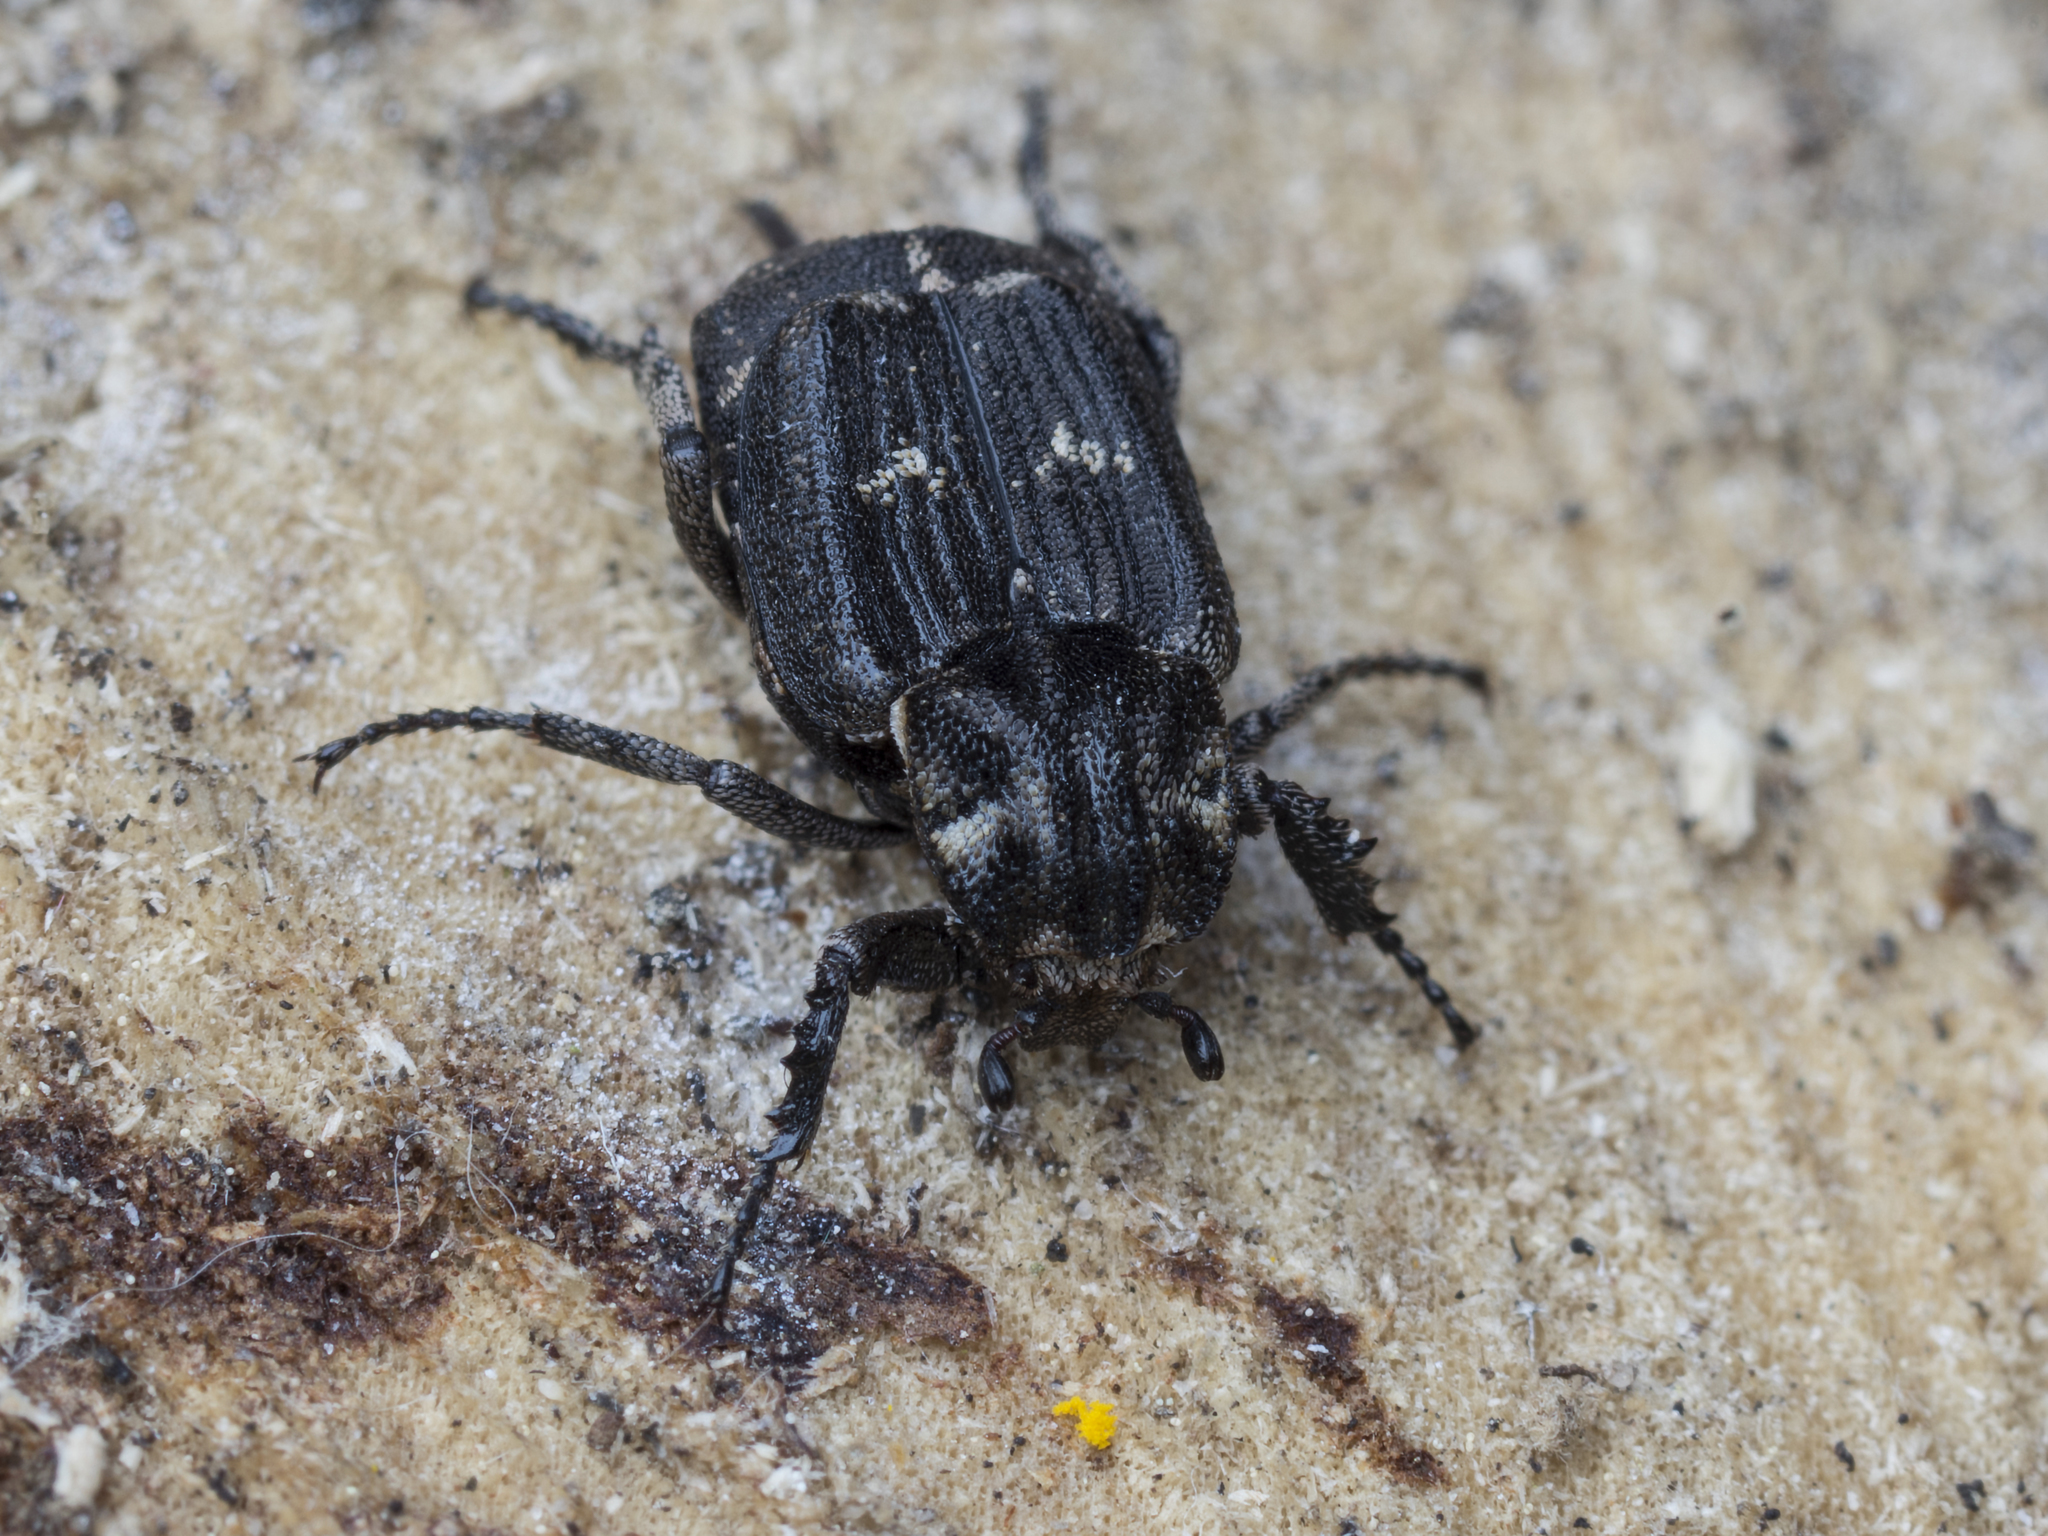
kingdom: Animalia
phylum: Arthropoda
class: Insecta
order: Coleoptera
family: Scarabaeidae
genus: Valgus
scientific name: Valgus hemipterus
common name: Bug flower chafer
